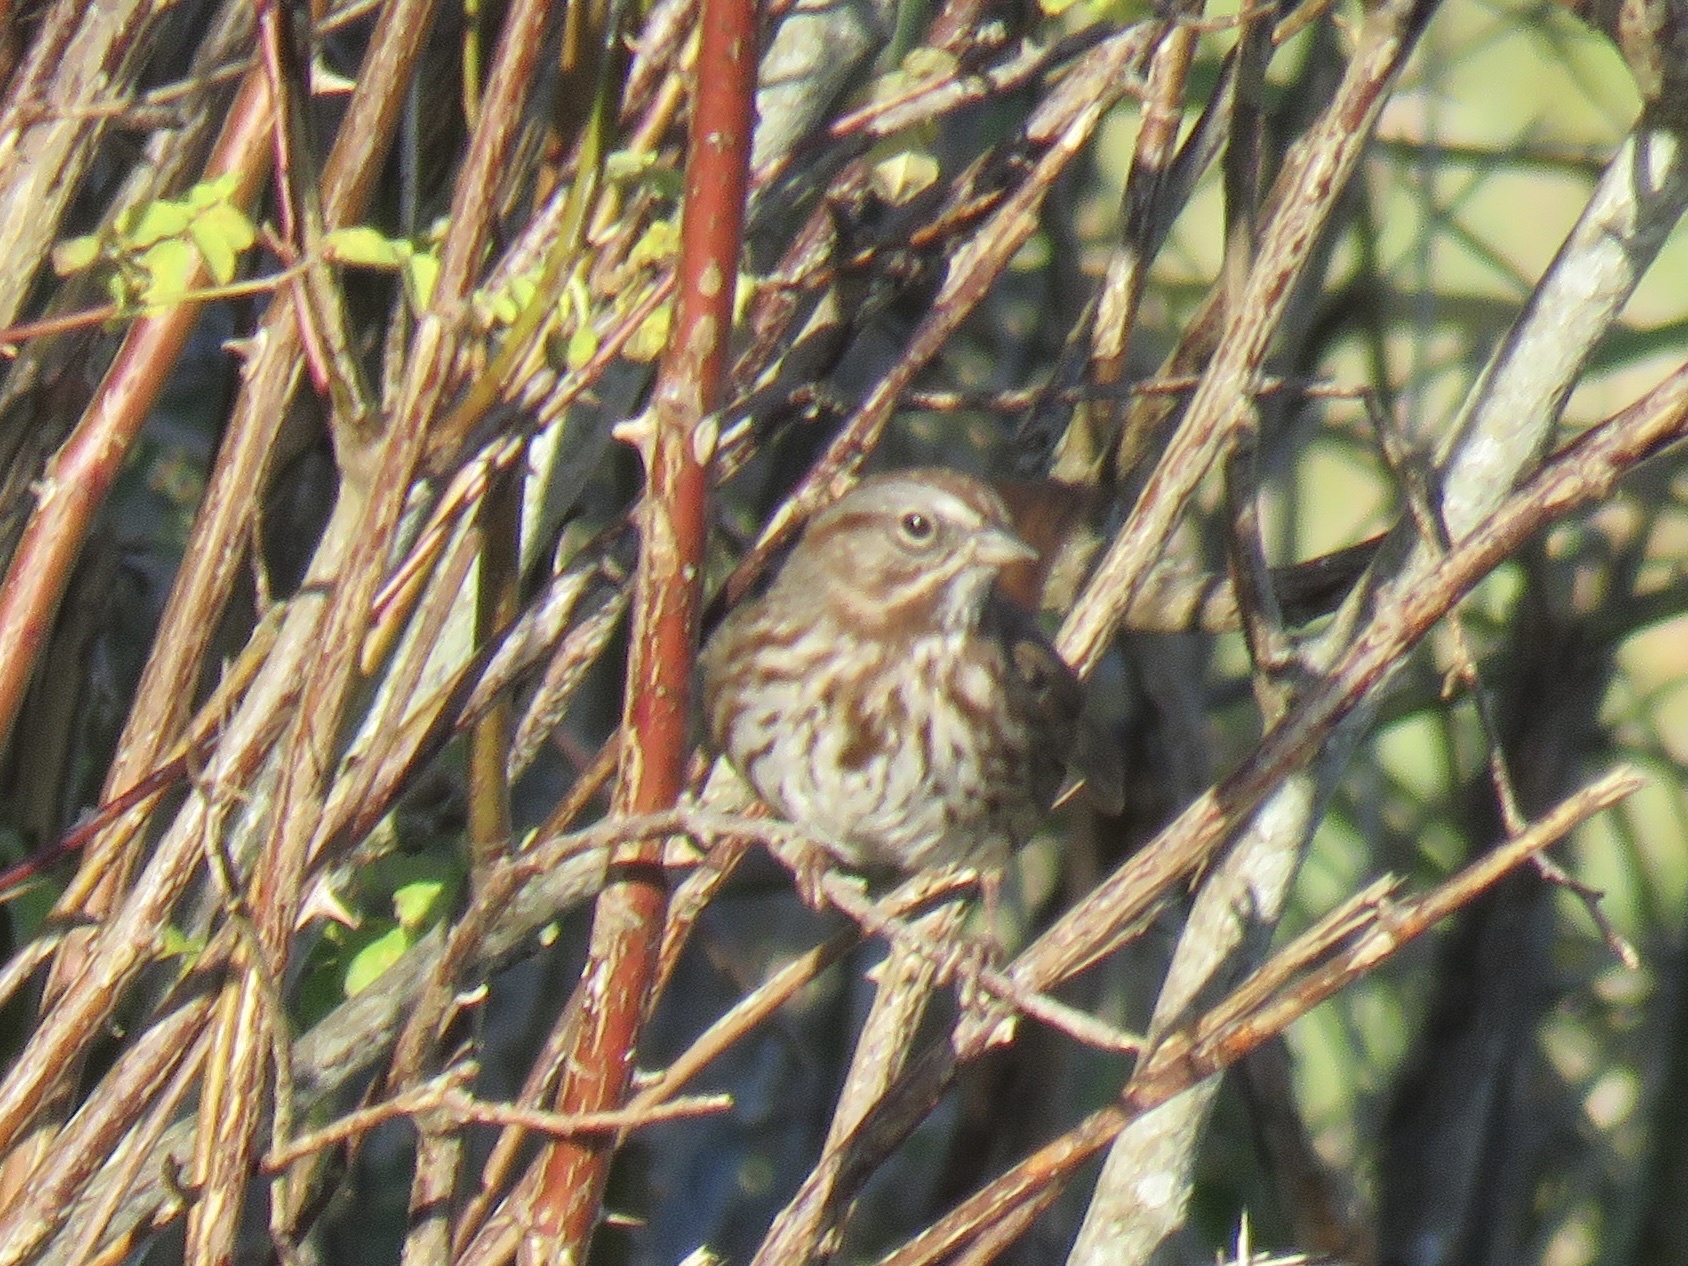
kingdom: Animalia
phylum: Chordata
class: Aves
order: Passeriformes
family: Passerellidae
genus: Melospiza
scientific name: Melospiza melodia
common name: Song sparrow
